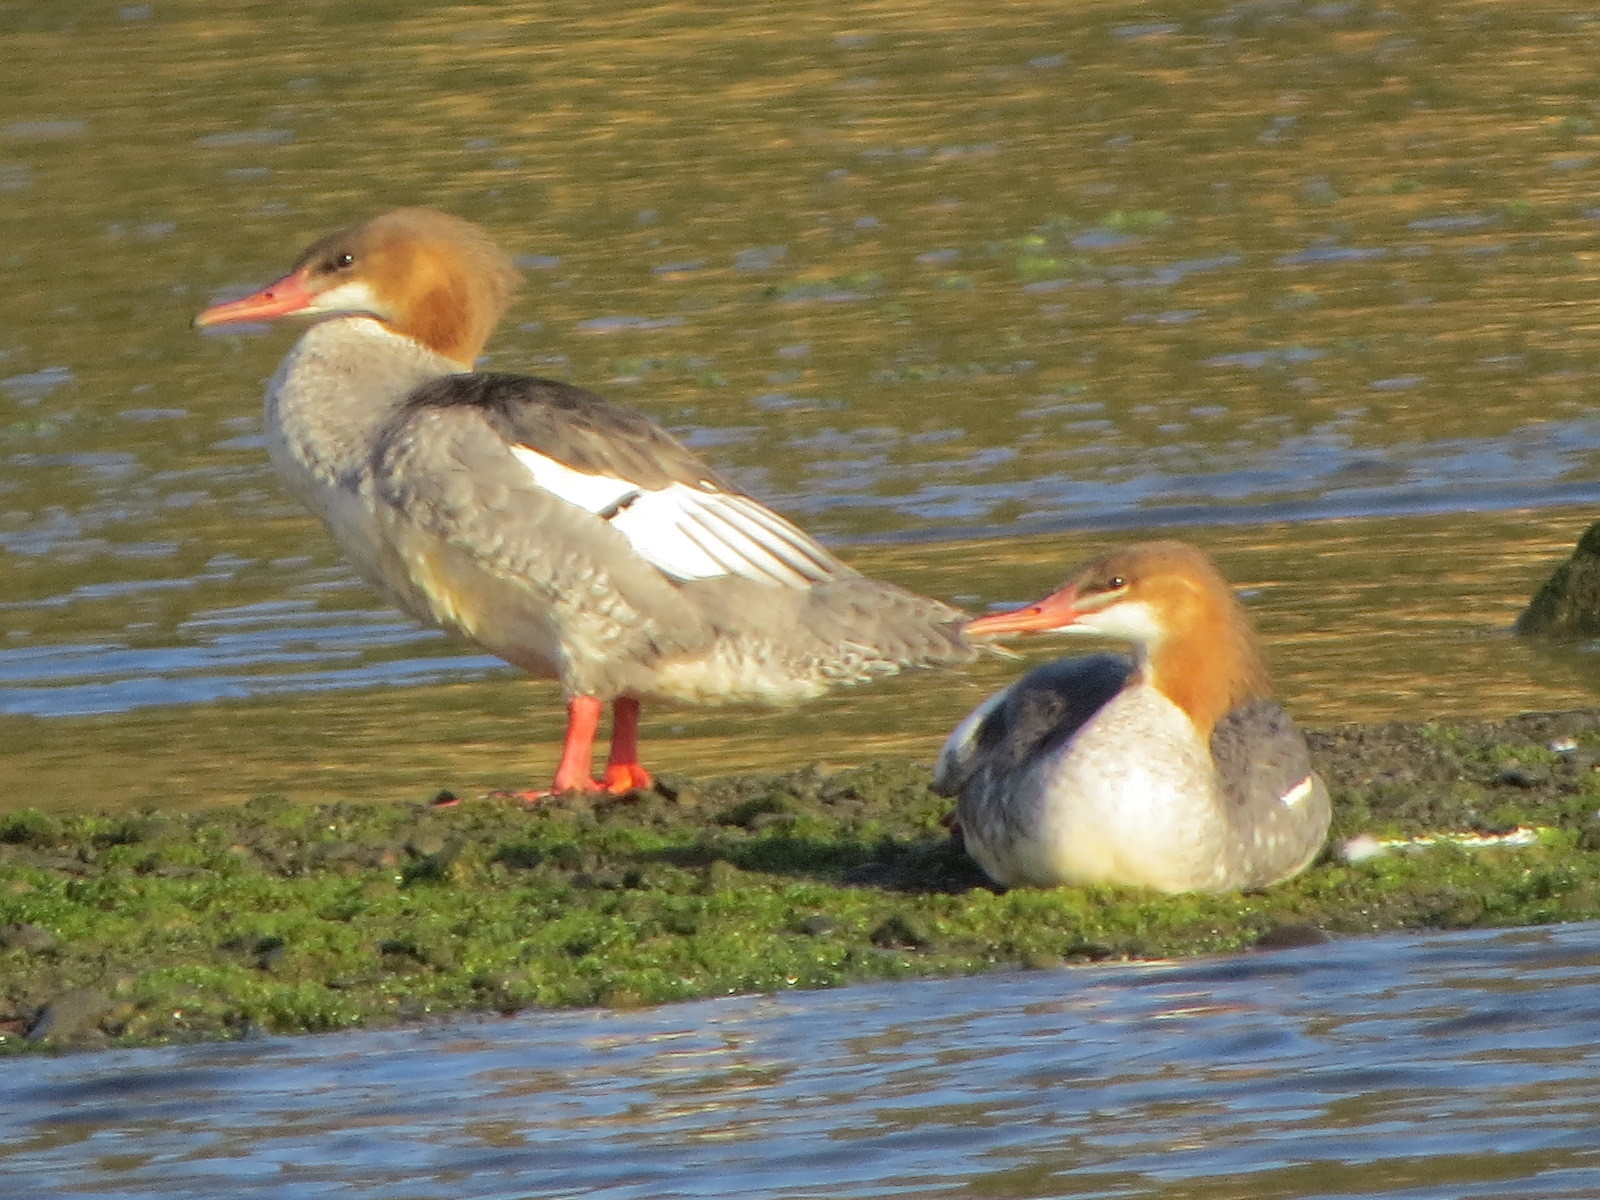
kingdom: Animalia
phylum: Chordata
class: Aves
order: Anseriformes
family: Anatidae
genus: Mergus
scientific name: Mergus merganser
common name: Common merganser
